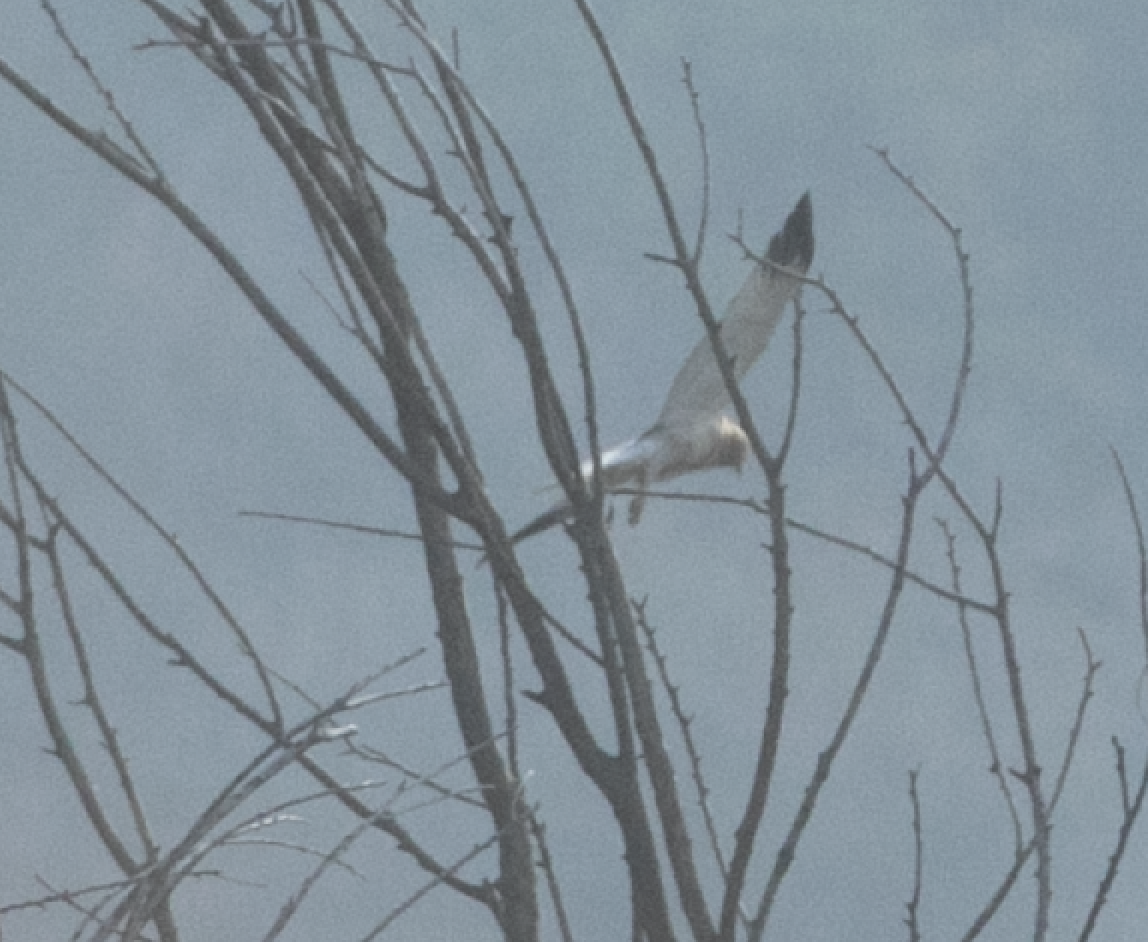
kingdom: Animalia
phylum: Chordata
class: Aves
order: Accipitriformes
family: Accipitridae
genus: Circus
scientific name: Circus aeruginosus
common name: Western marsh harrier
